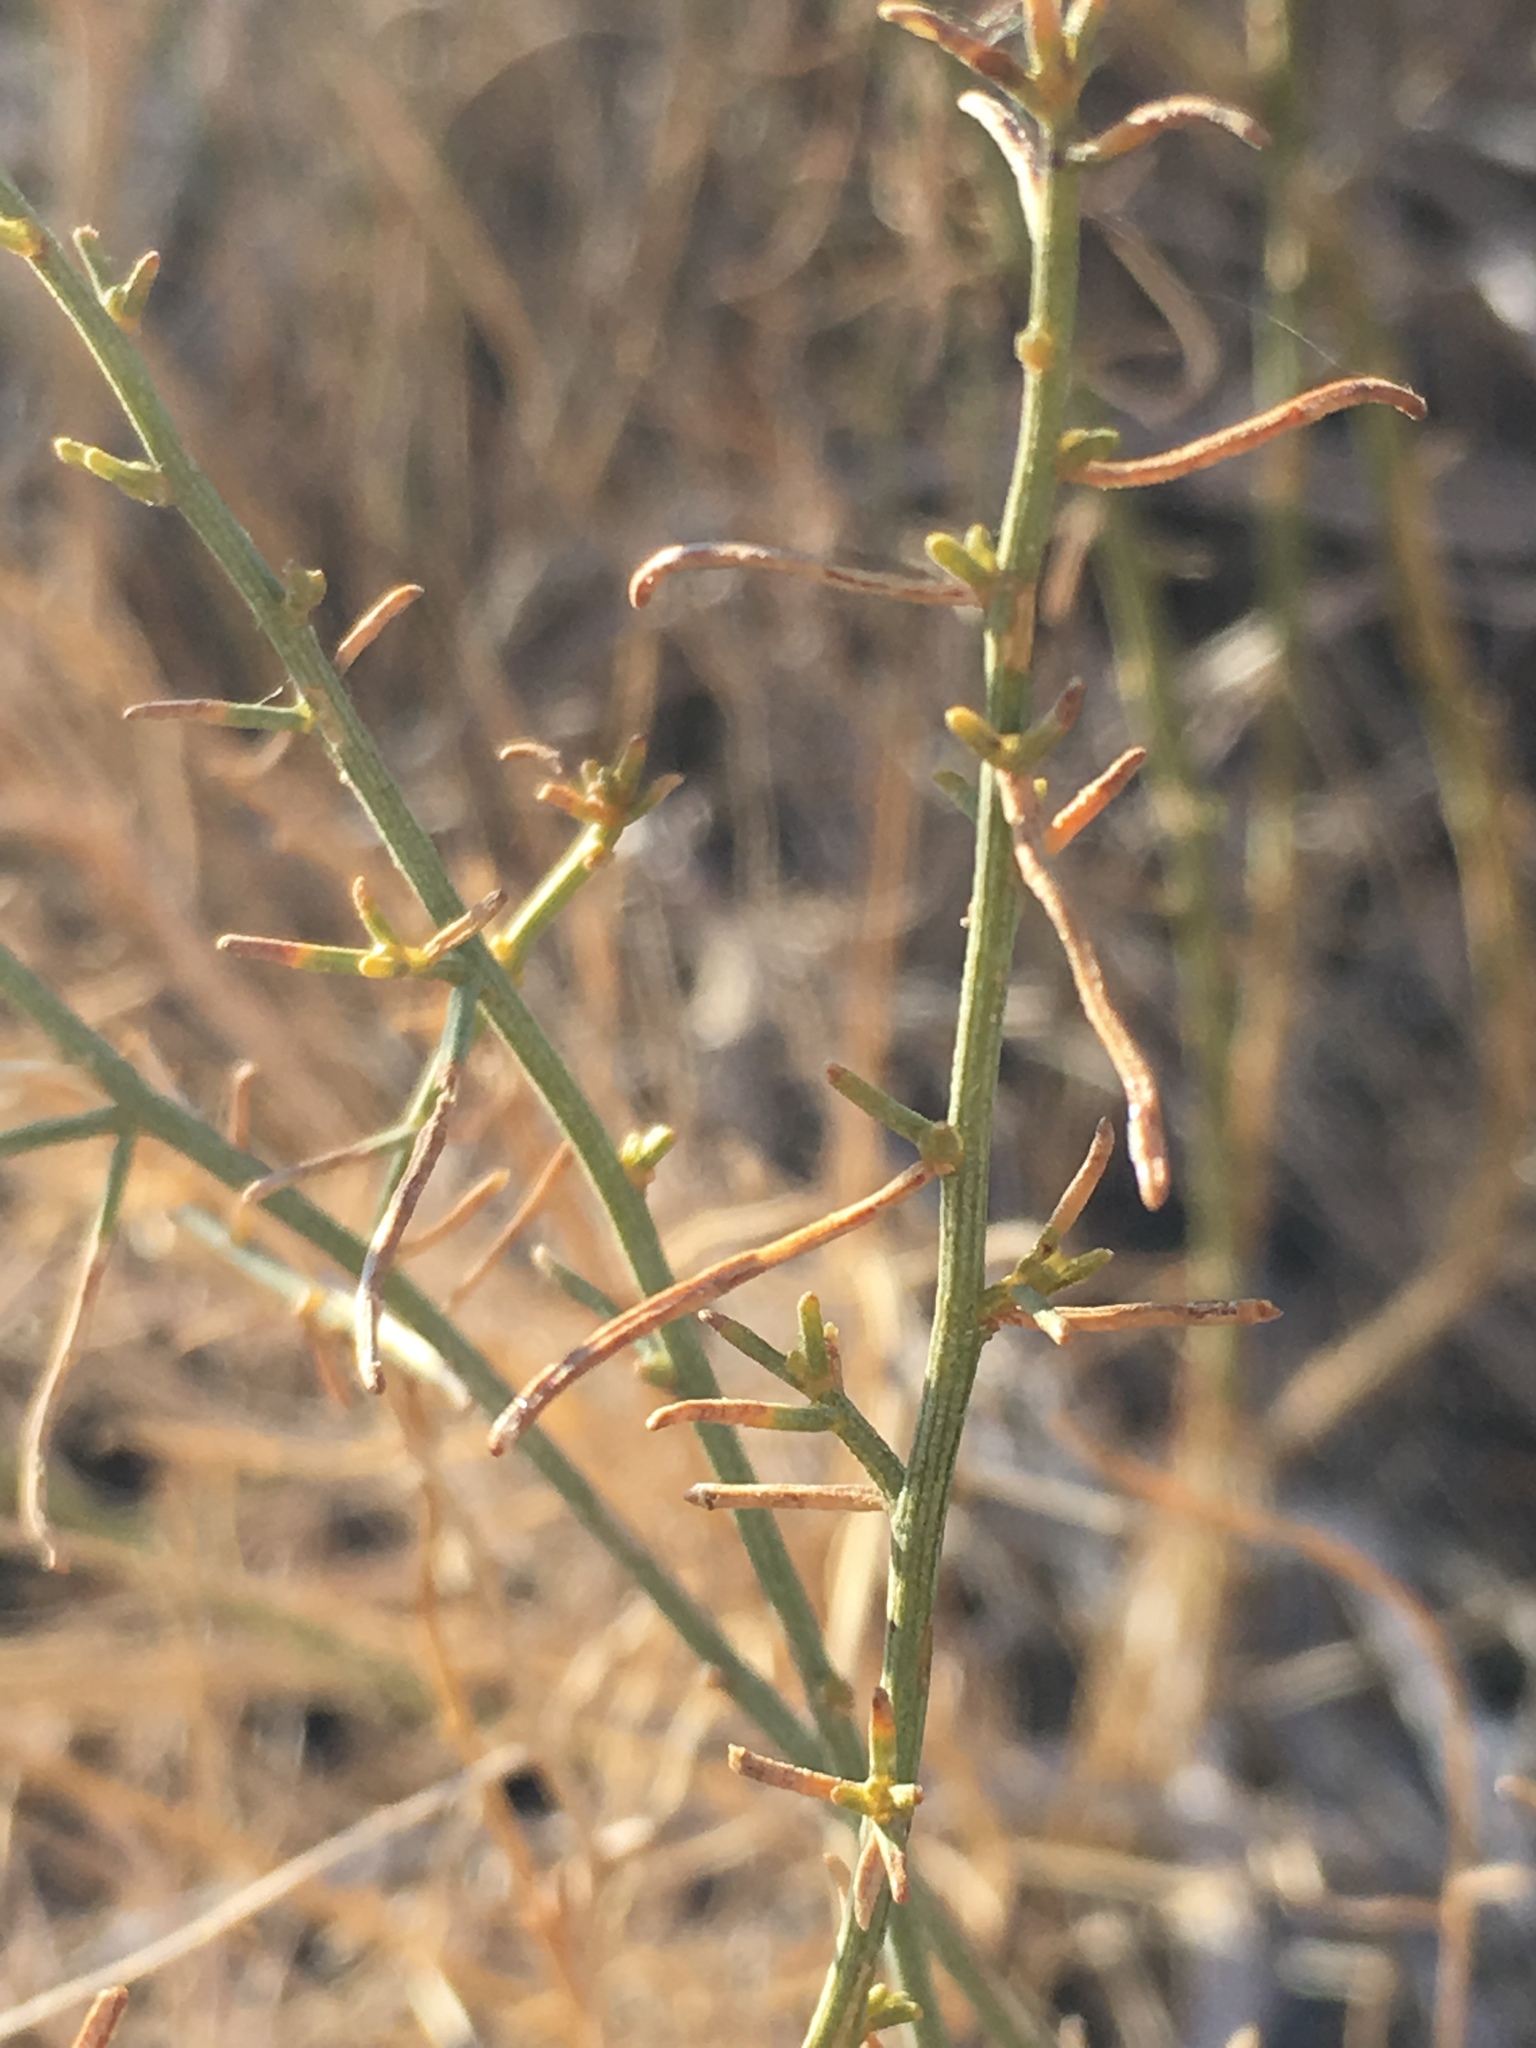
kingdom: Plantae
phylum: Tracheophyta
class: Magnoliopsida
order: Asterales
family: Asteraceae
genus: Ambrosia
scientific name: Ambrosia salsola
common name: Burrobrush
